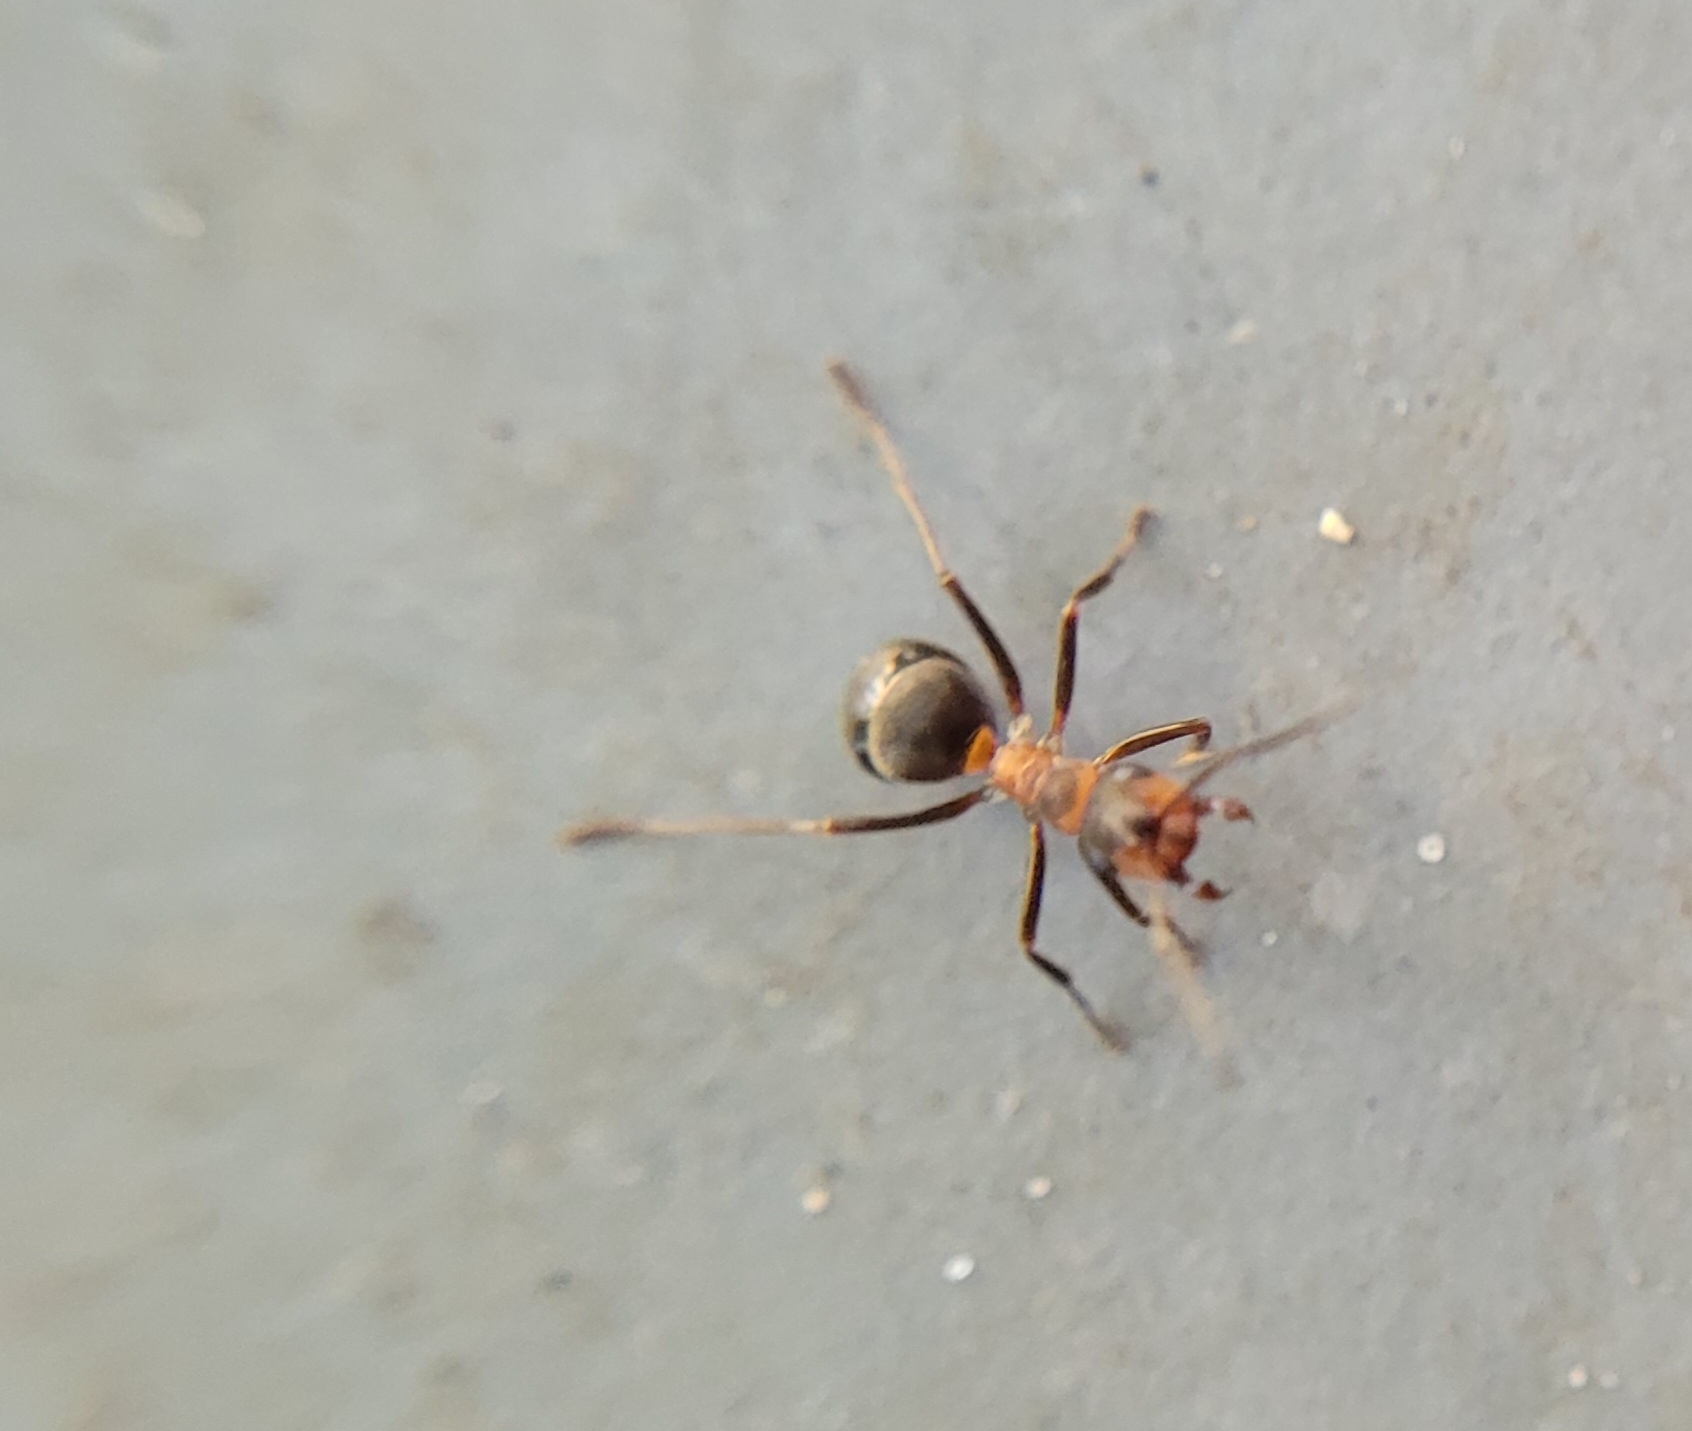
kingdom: Animalia
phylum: Arthropoda
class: Insecta
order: Hymenoptera
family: Formicidae
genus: Formica
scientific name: Formica pratensis
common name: European red wood ant
